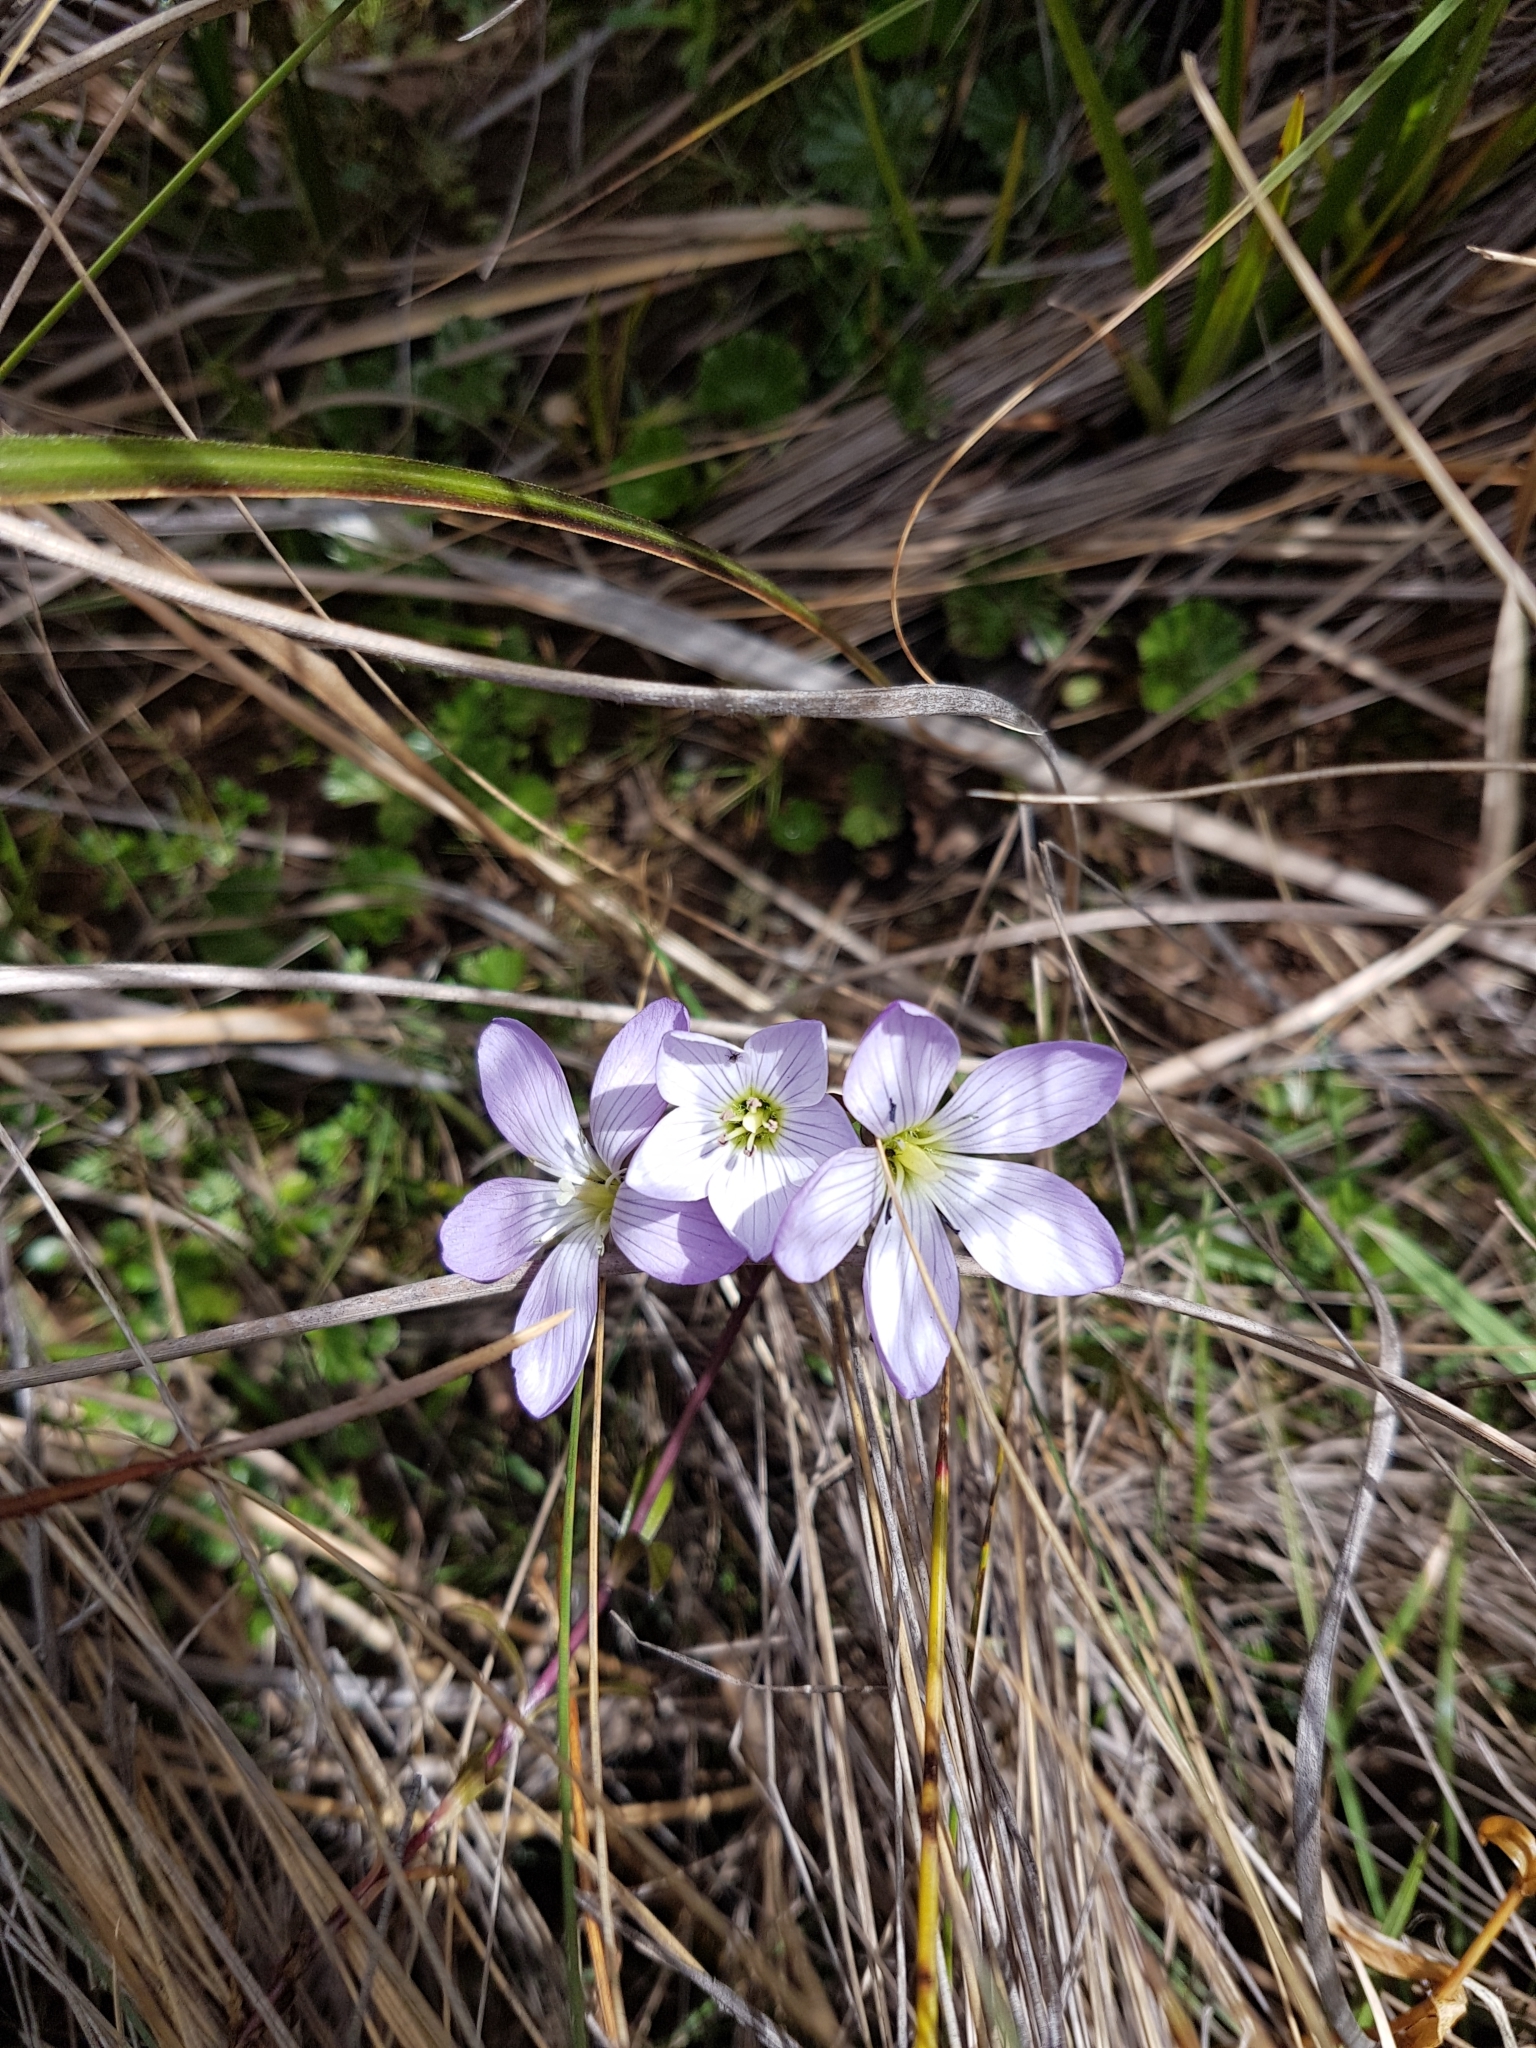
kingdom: Plantae
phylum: Tracheophyta
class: Magnoliopsida
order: Gentianales
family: Gentianaceae
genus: Gentianella
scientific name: Gentianella cerastioides
